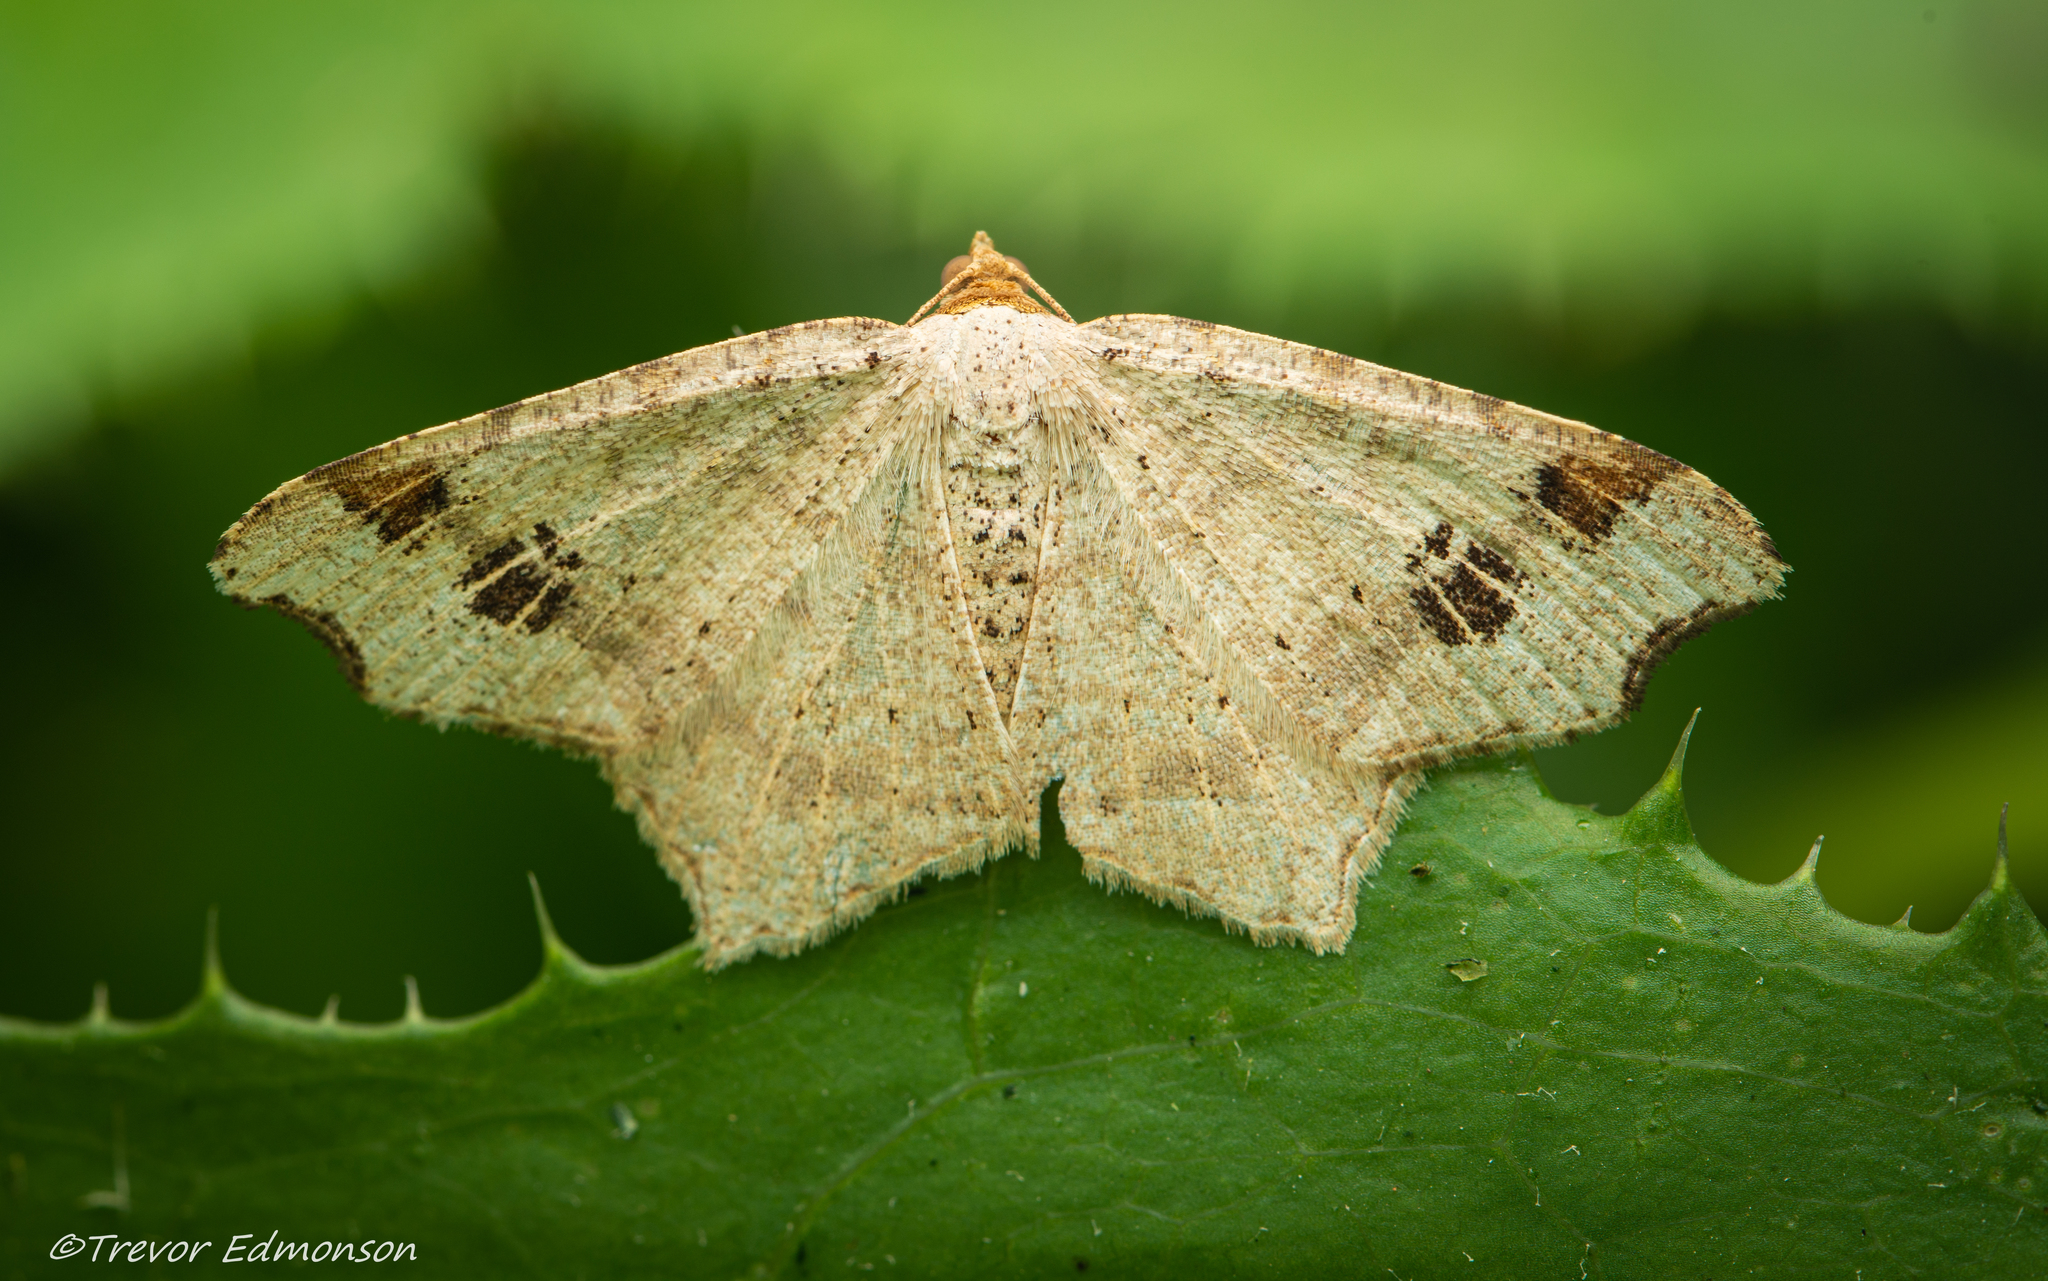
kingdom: Animalia
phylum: Arthropoda
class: Insecta
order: Lepidoptera
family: Geometridae
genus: Macaria
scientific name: Macaria aemulataria
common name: Common angle
